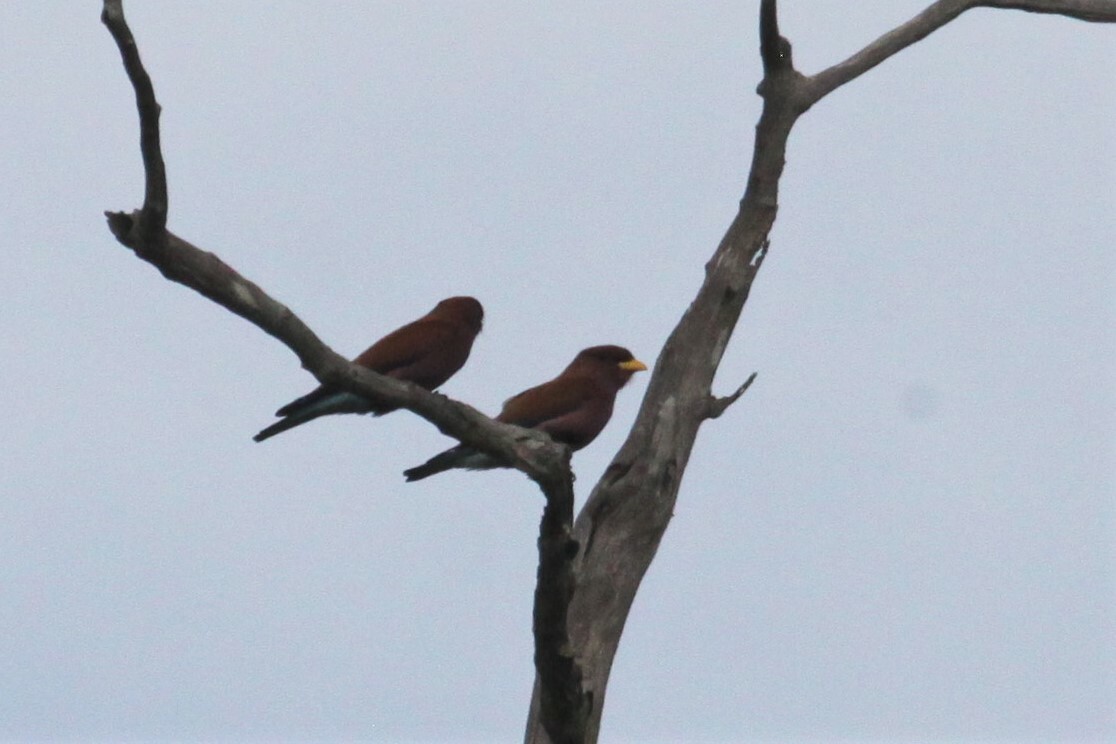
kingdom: Animalia
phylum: Chordata
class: Aves
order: Coraciiformes
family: Coraciidae
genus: Eurystomus
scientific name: Eurystomus glaucurus
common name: Broad-billed roller
